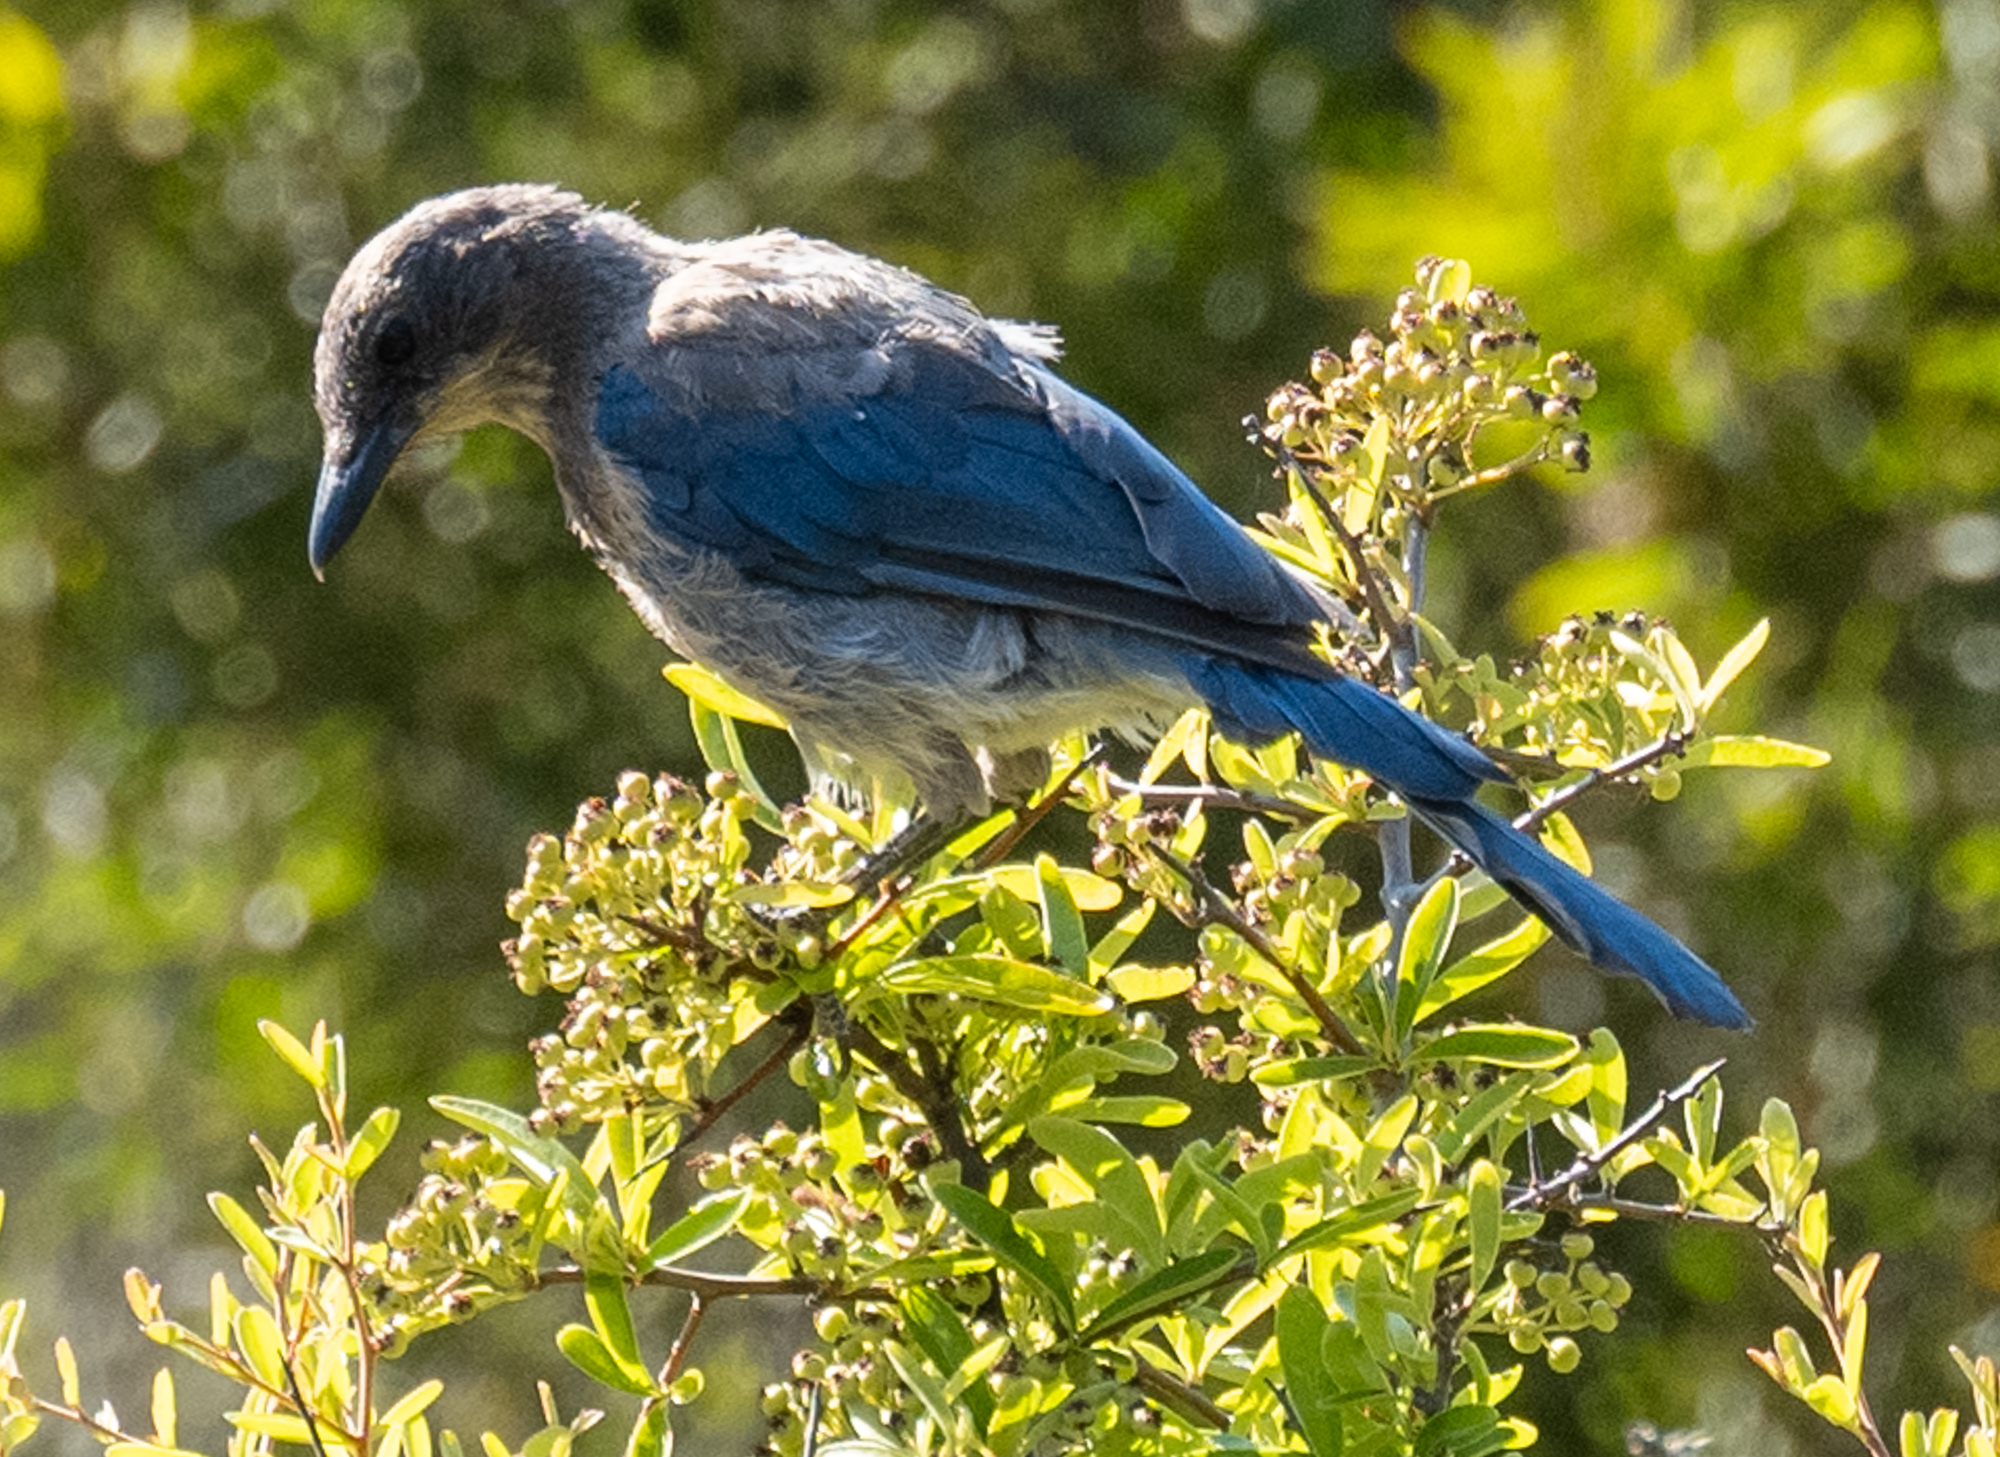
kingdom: Animalia
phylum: Chordata
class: Aves
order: Passeriformes
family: Corvidae
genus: Aphelocoma
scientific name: Aphelocoma californica
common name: California scrub-jay
